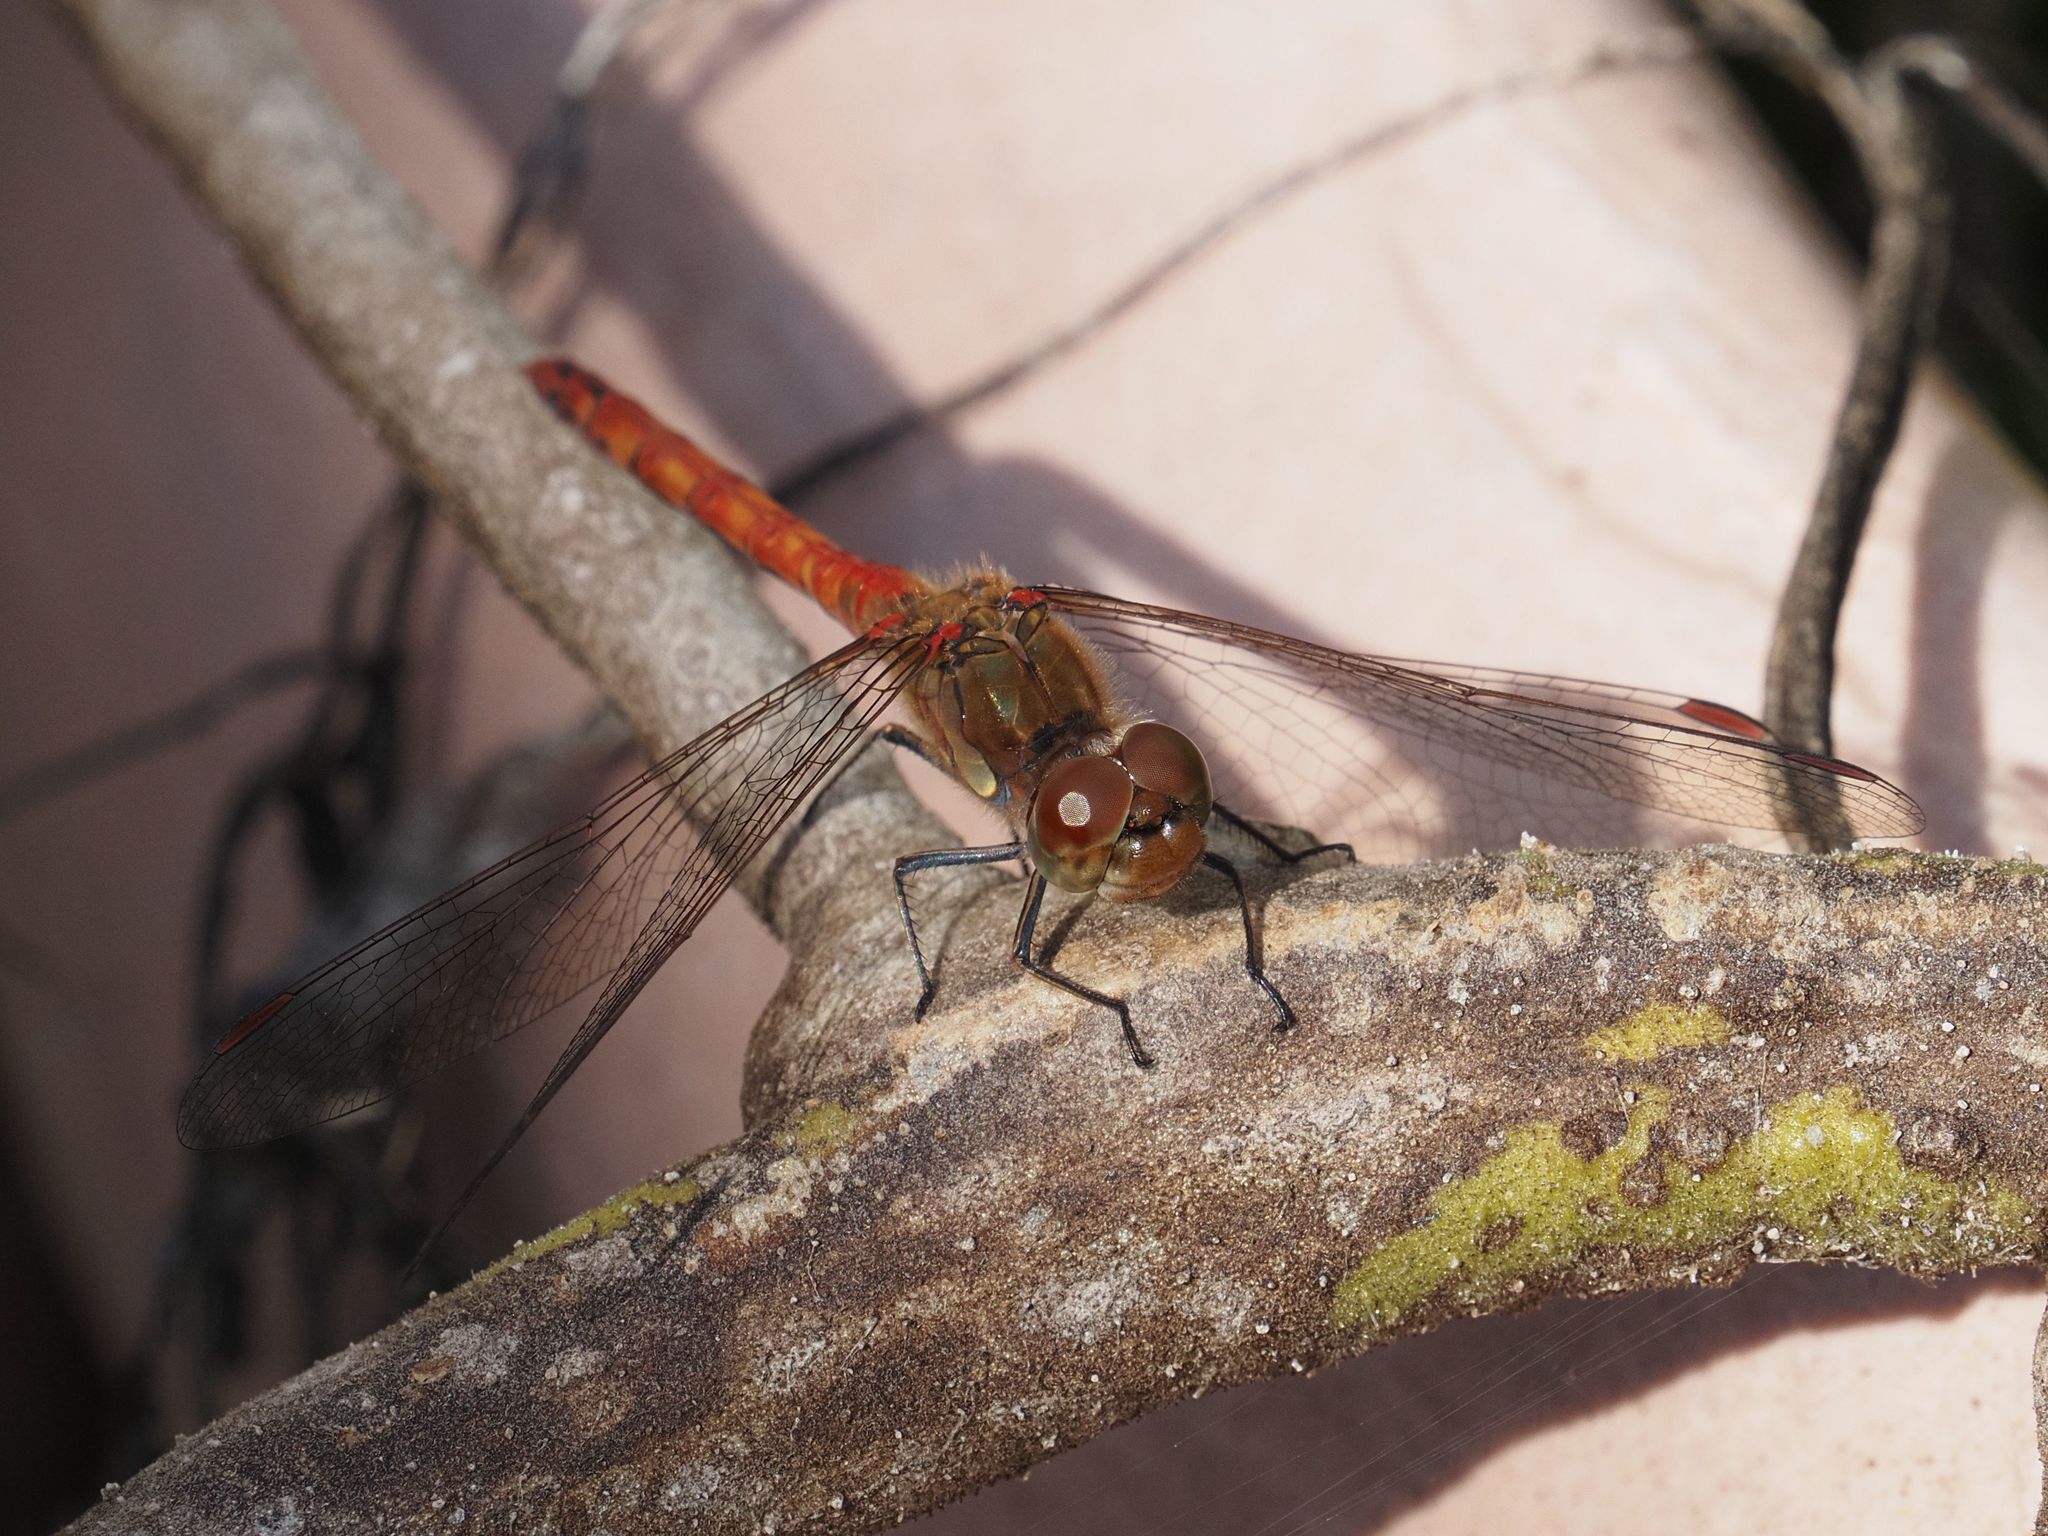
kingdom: Animalia
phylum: Arthropoda
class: Insecta
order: Odonata
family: Libellulidae
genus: Sympetrum
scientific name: Sympetrum striolatum
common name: Common darter
